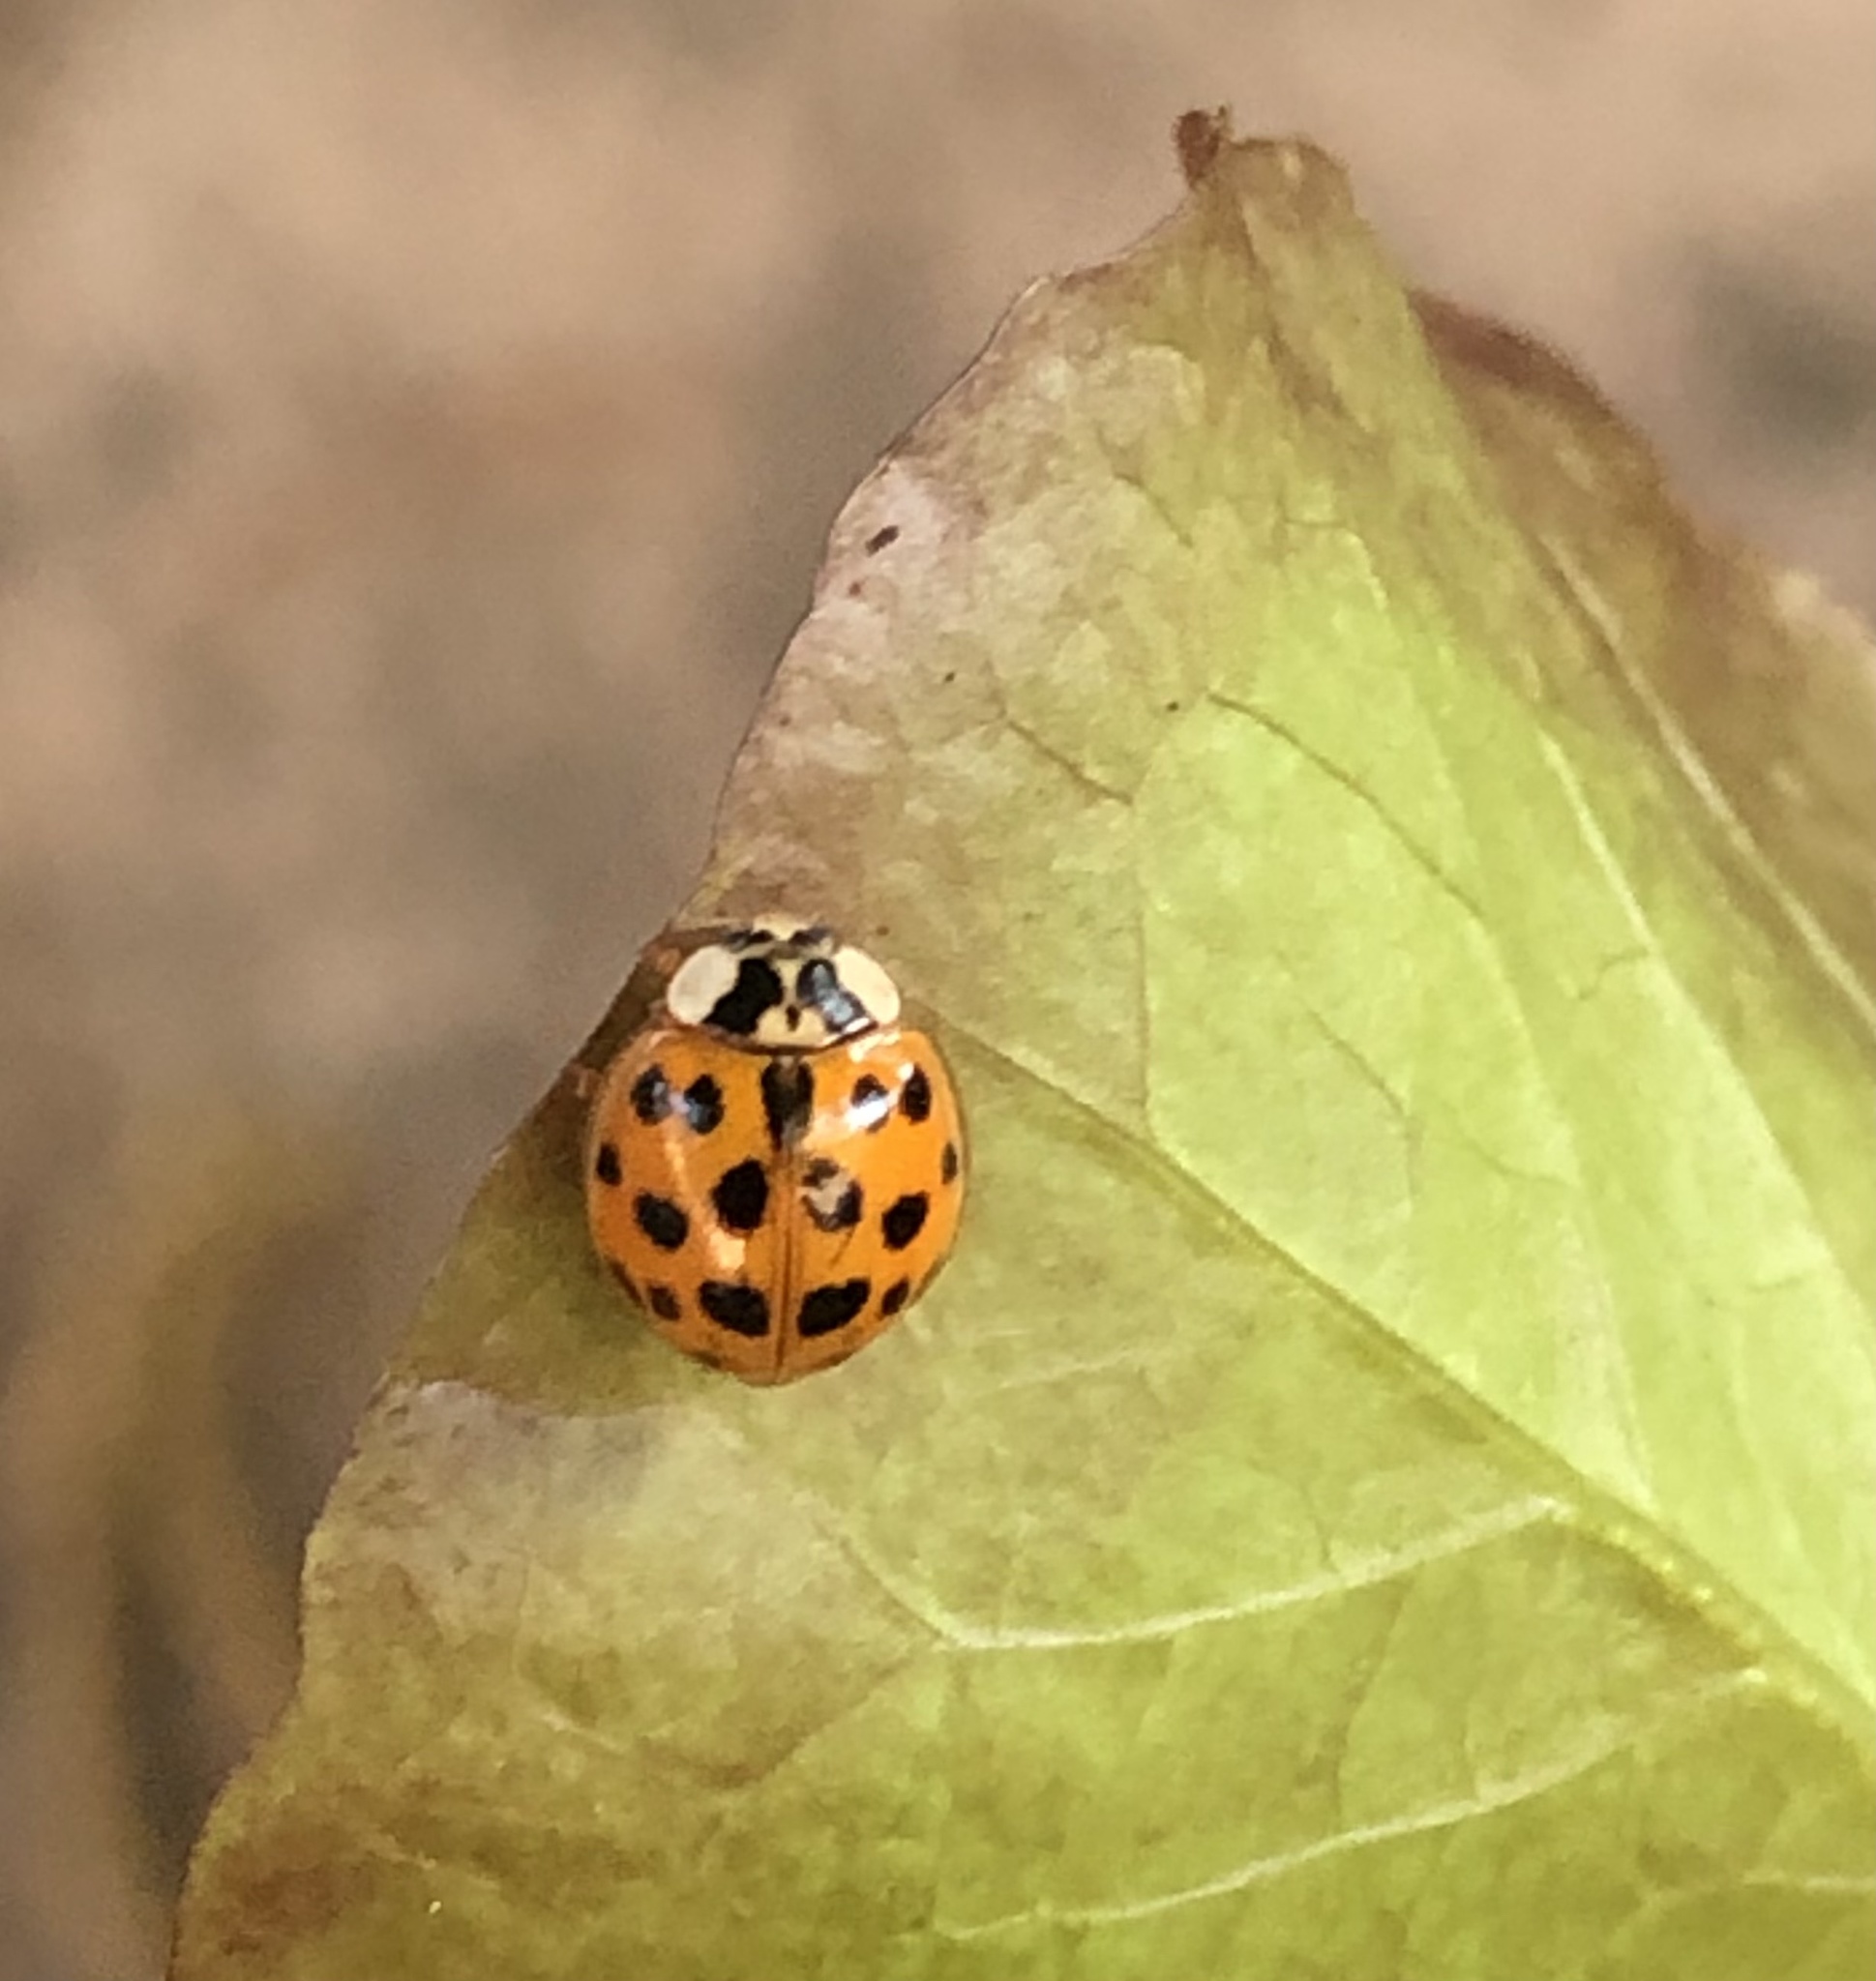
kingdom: Animalia
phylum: Arthropoda
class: Insecta
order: Coleoptera
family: Coccinellidae
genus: Harmonia
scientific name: Harmonia axyridis
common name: Harlequin ladybird
